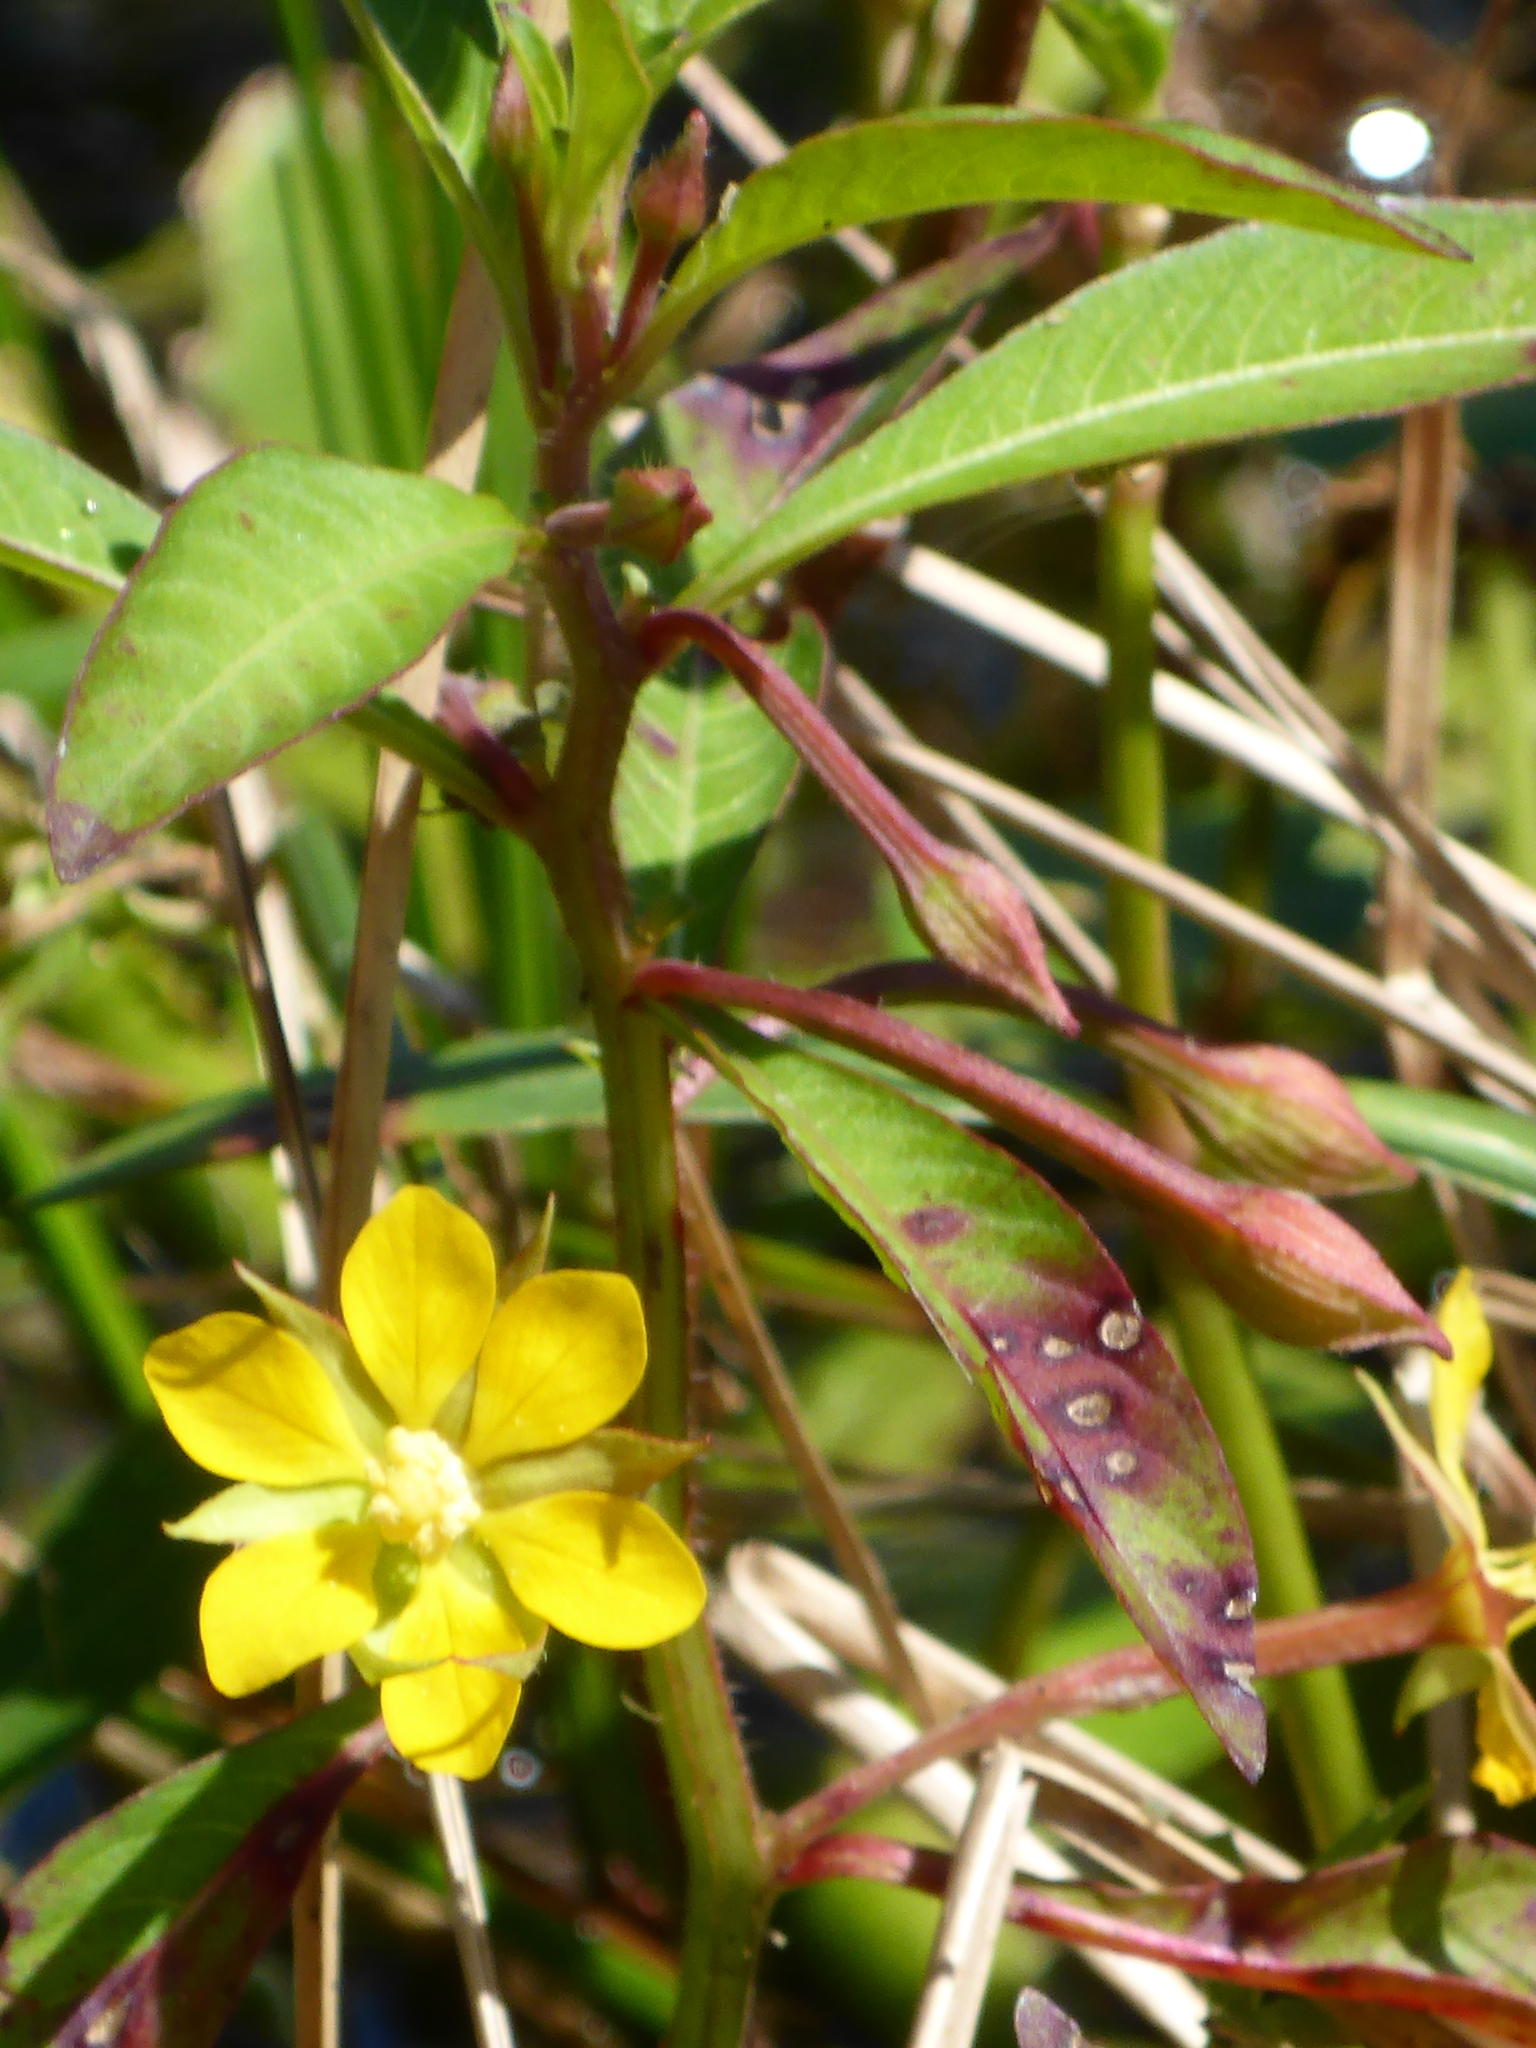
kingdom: Plantae
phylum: Tracheophyta
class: Magnoliopsida
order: Myrtales
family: Onagraceae
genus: Ludwigia
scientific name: Ludwigia leptocarpa
